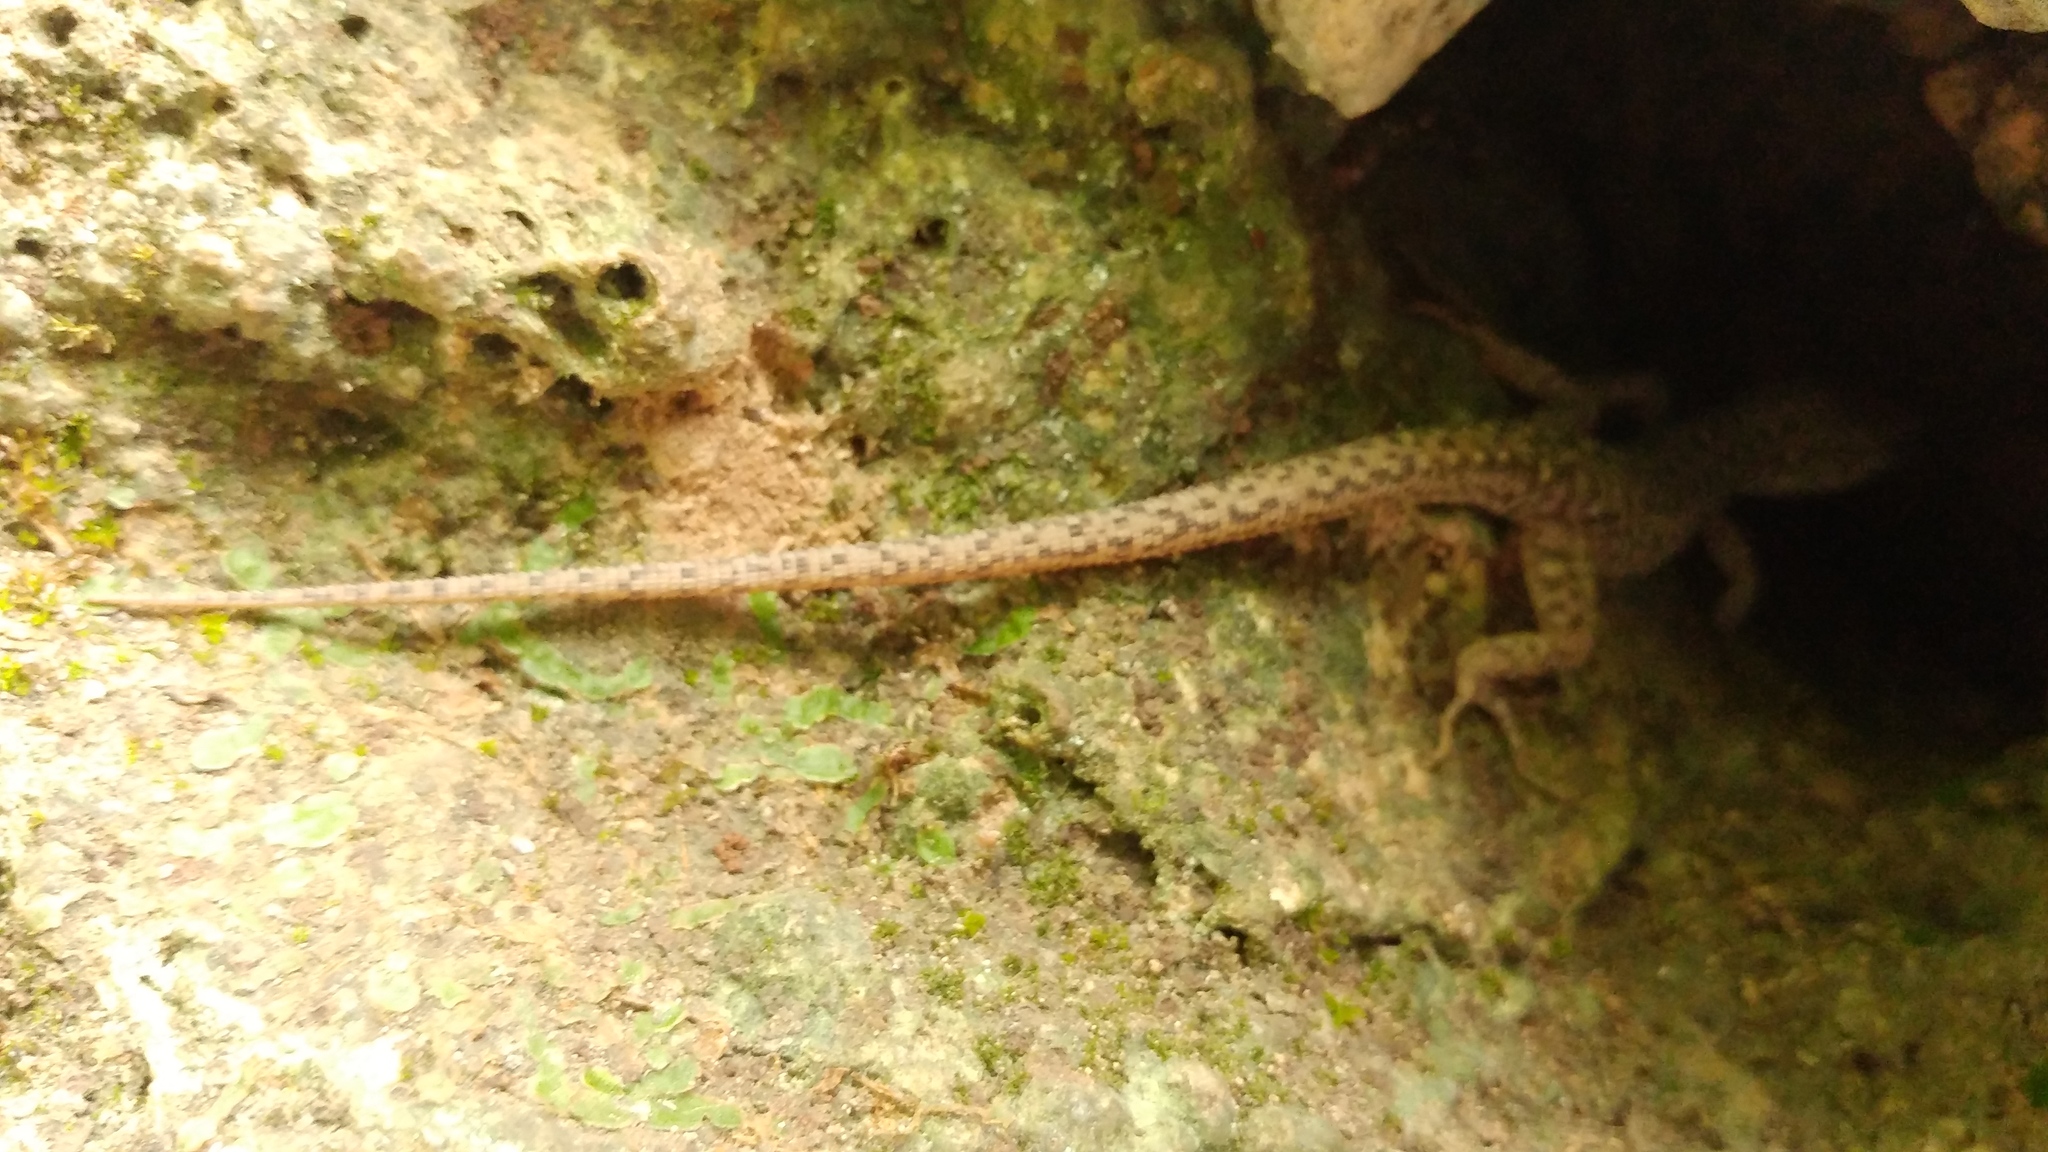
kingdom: Animalia
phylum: Chordata
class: Squamata
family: Xantusiidae
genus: Lepidophyma
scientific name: Lepidophyma sylvaticum
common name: Madrean tropical night lizard
